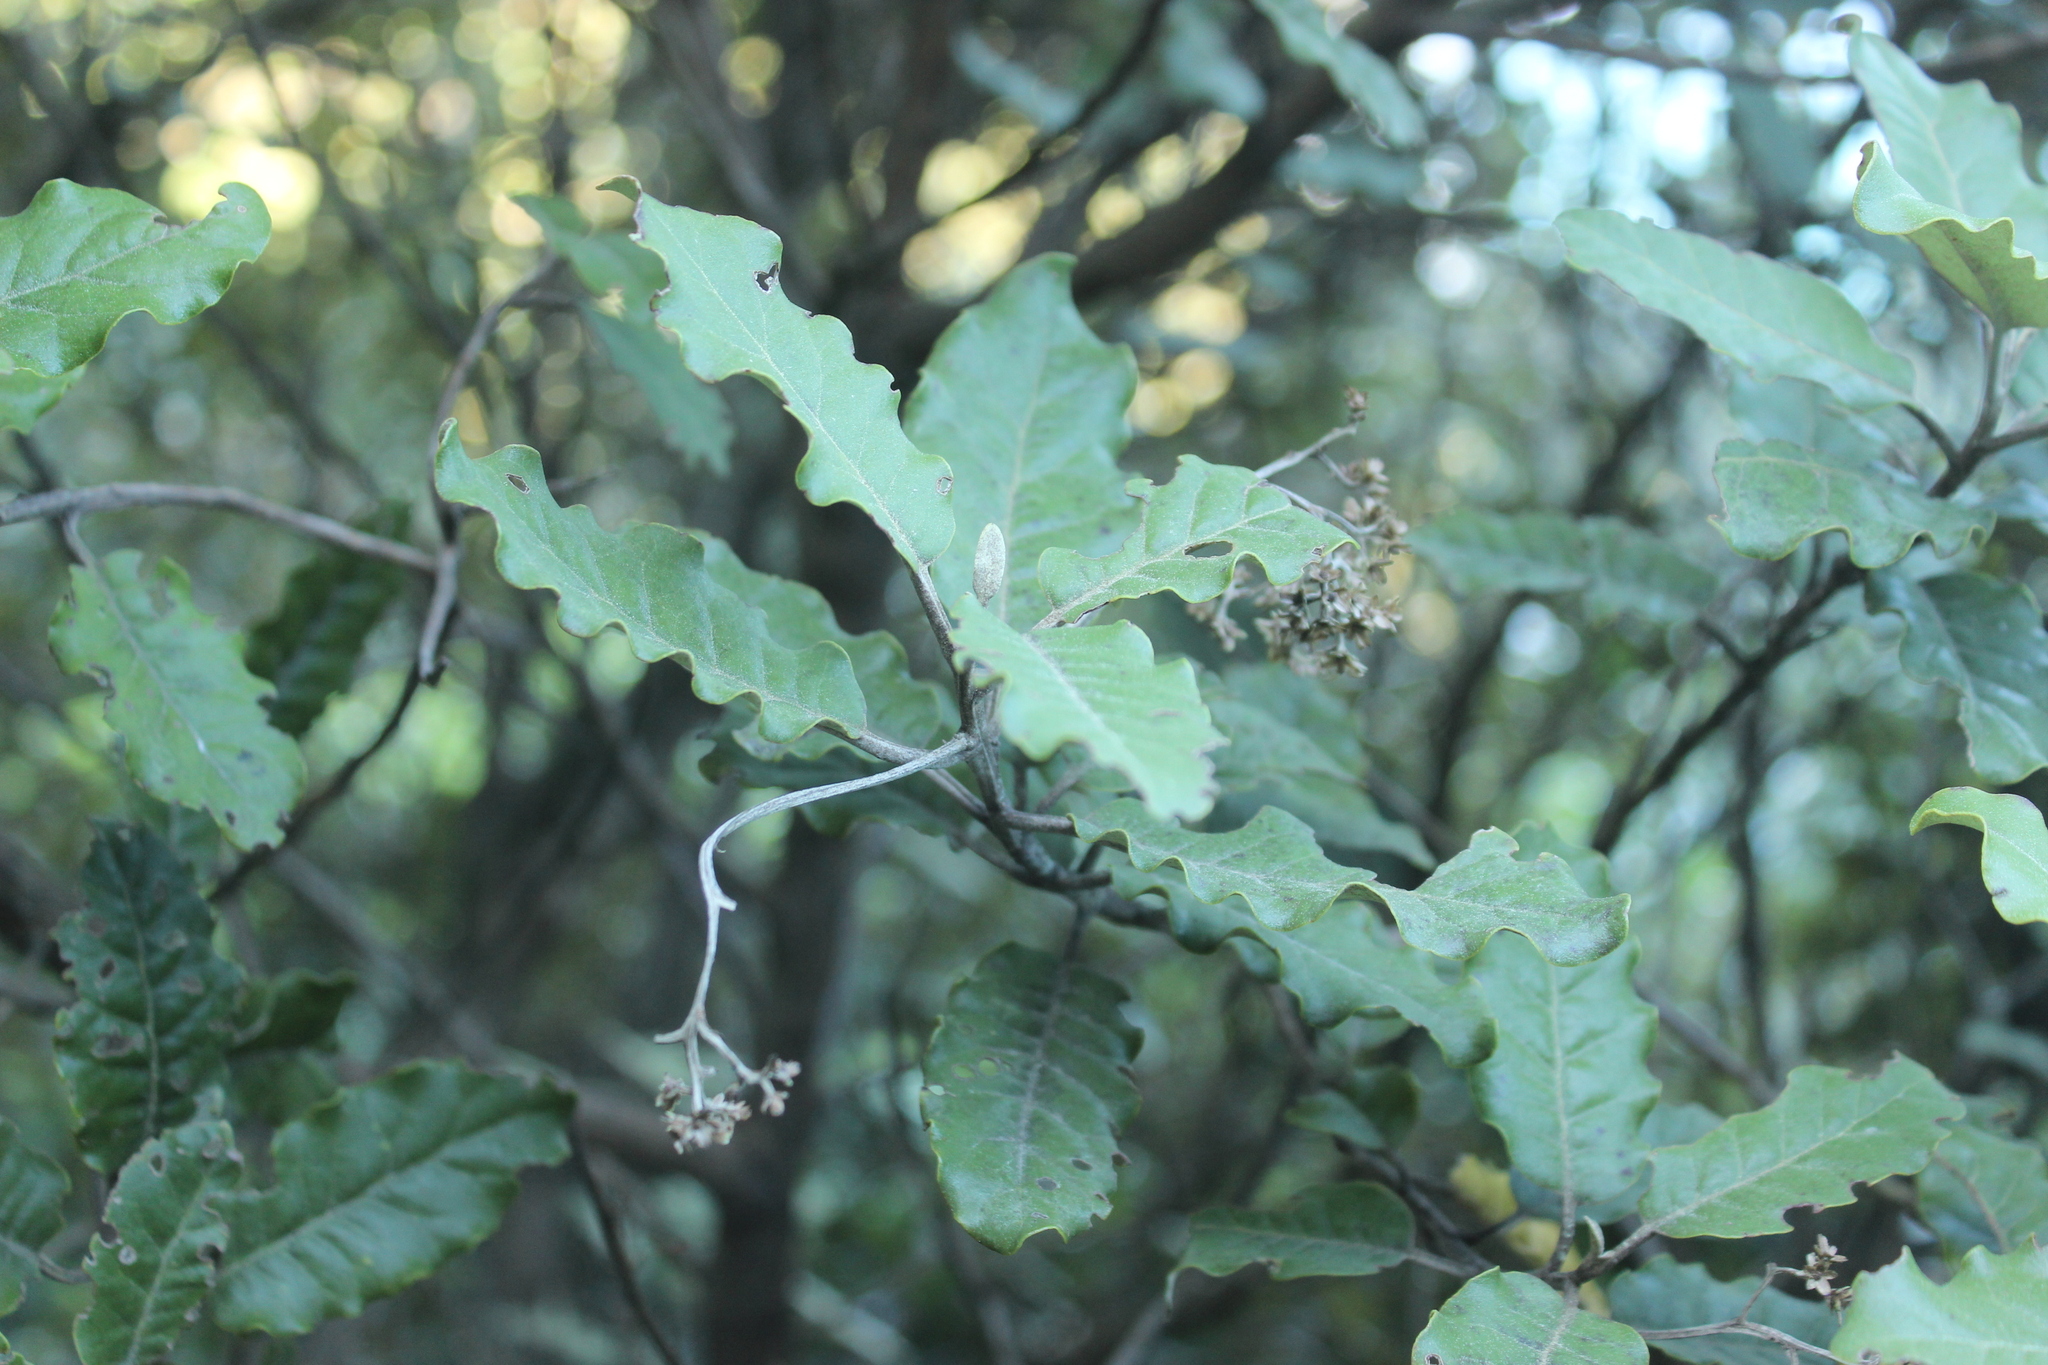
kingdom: Plantae
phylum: Tracheophyta
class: Magnoliopsida
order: Asterales
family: Asteraceae
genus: Olearia
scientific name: Olearia angulata
